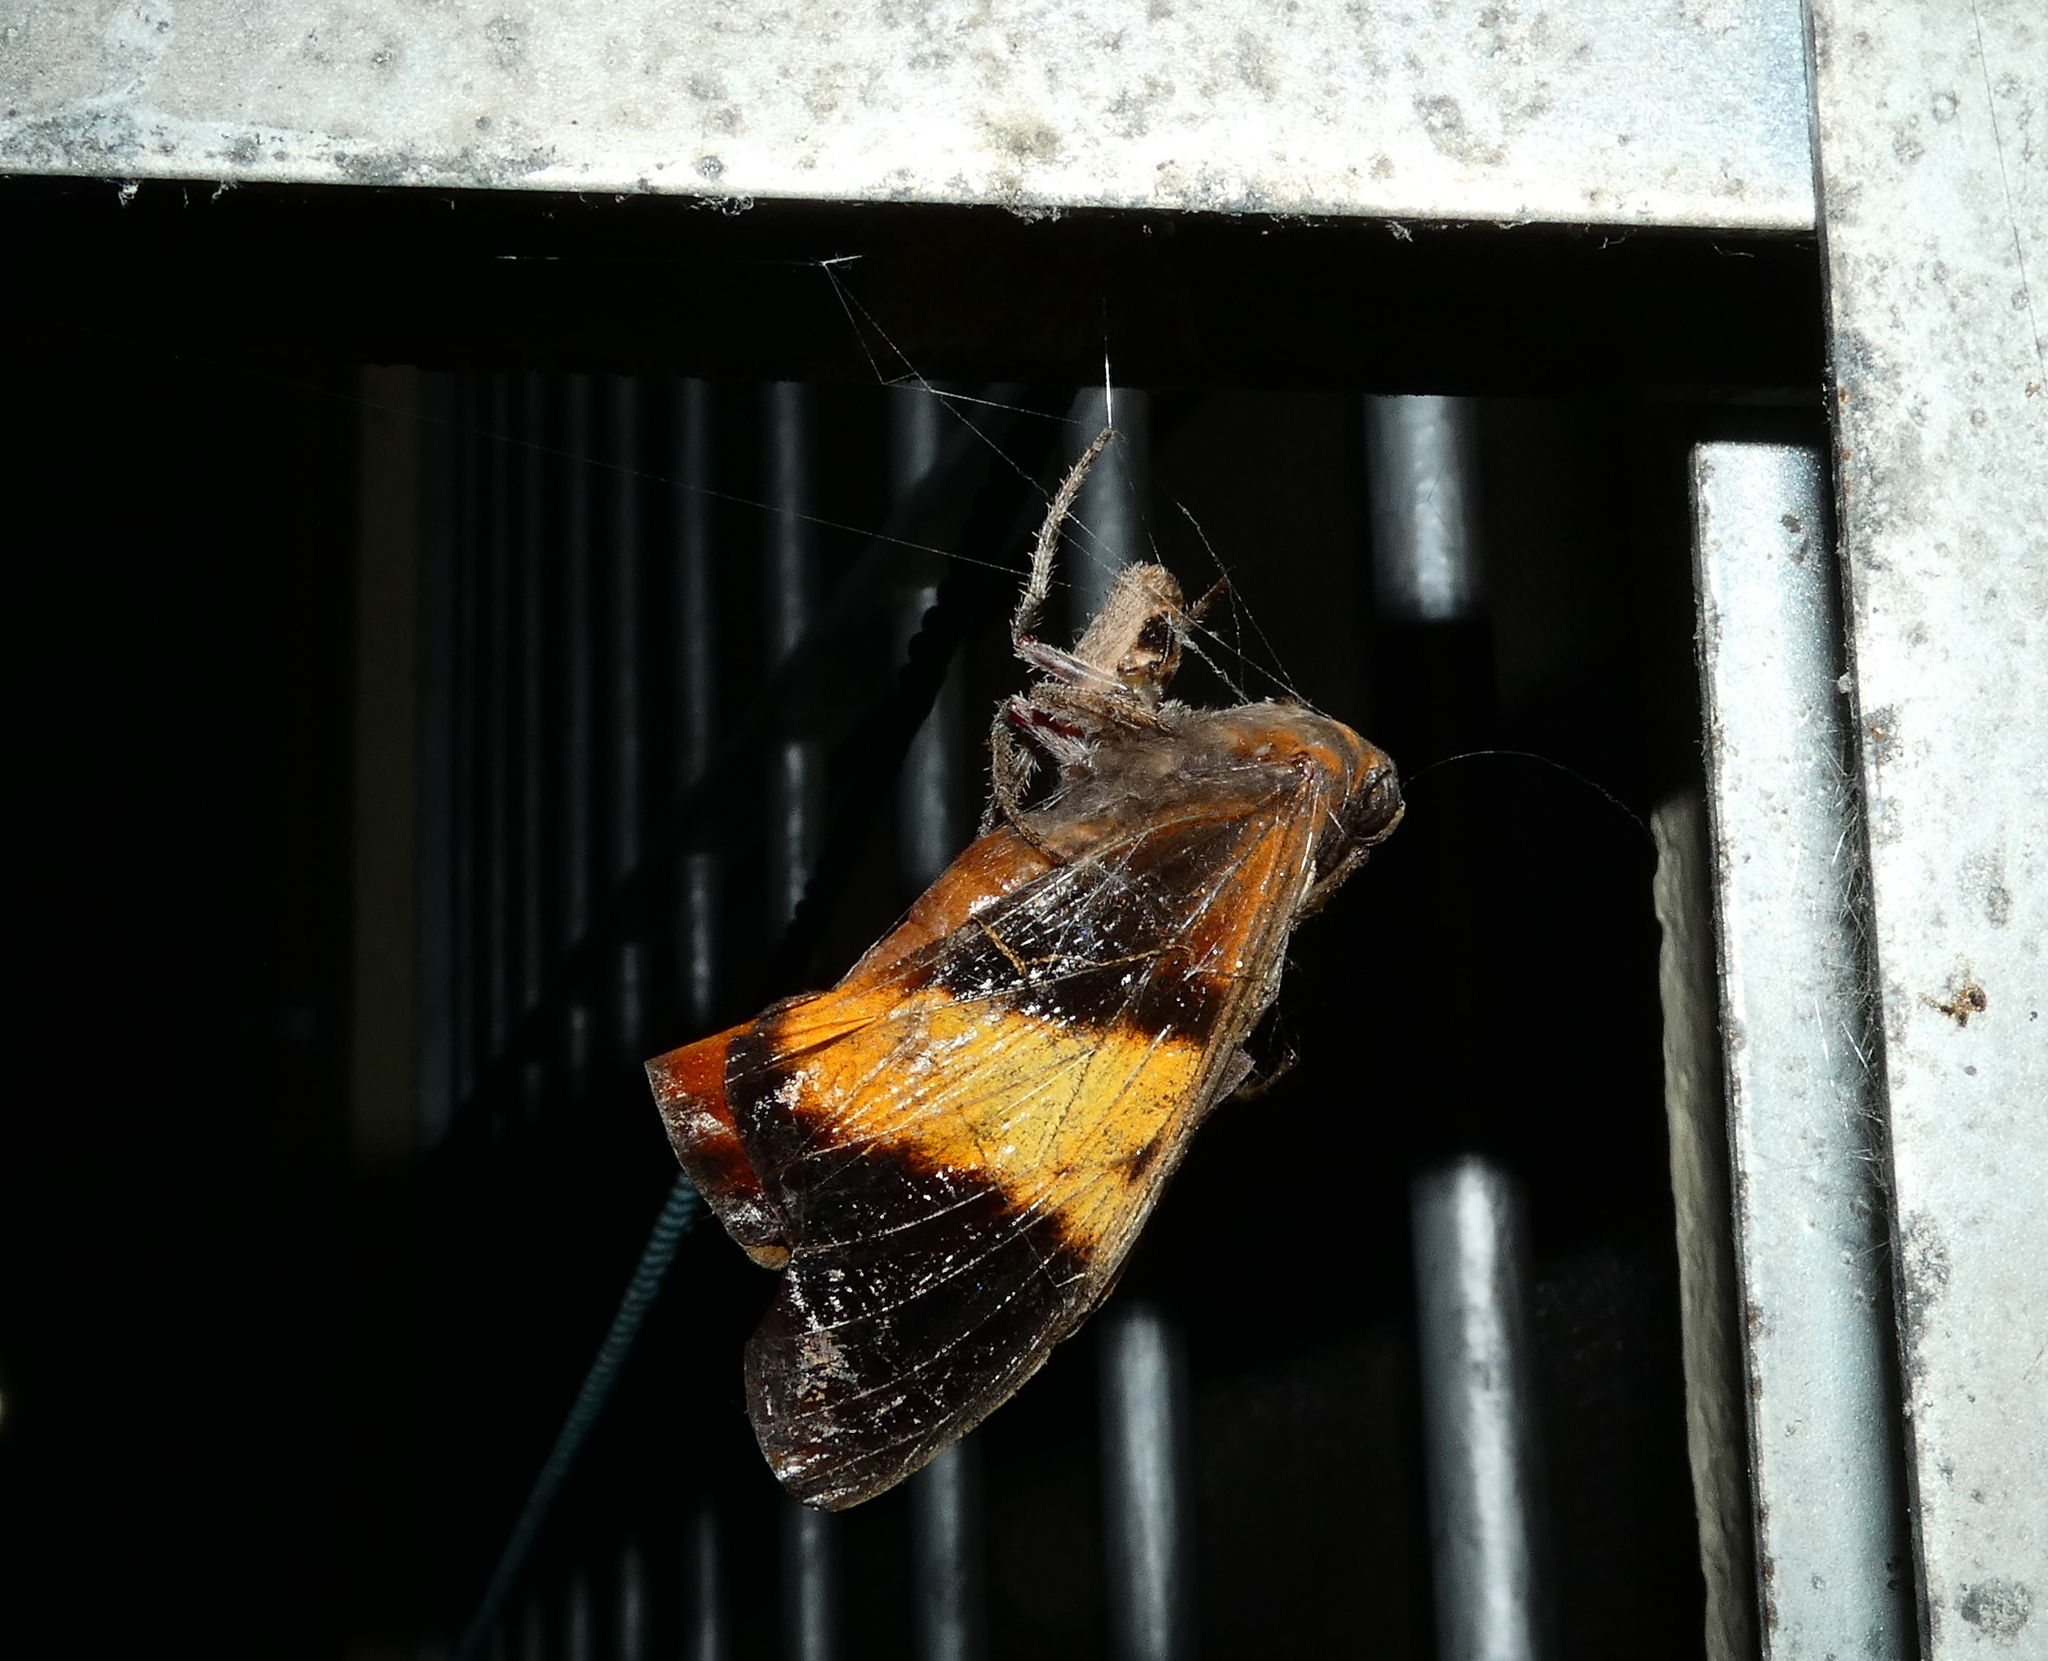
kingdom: Animalia
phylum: Arthropoda
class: Insecta
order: Lepidoptera
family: Nymphalidae
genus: Brassolis
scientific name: Brassolis sophorae
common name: Coconut caterpillar
